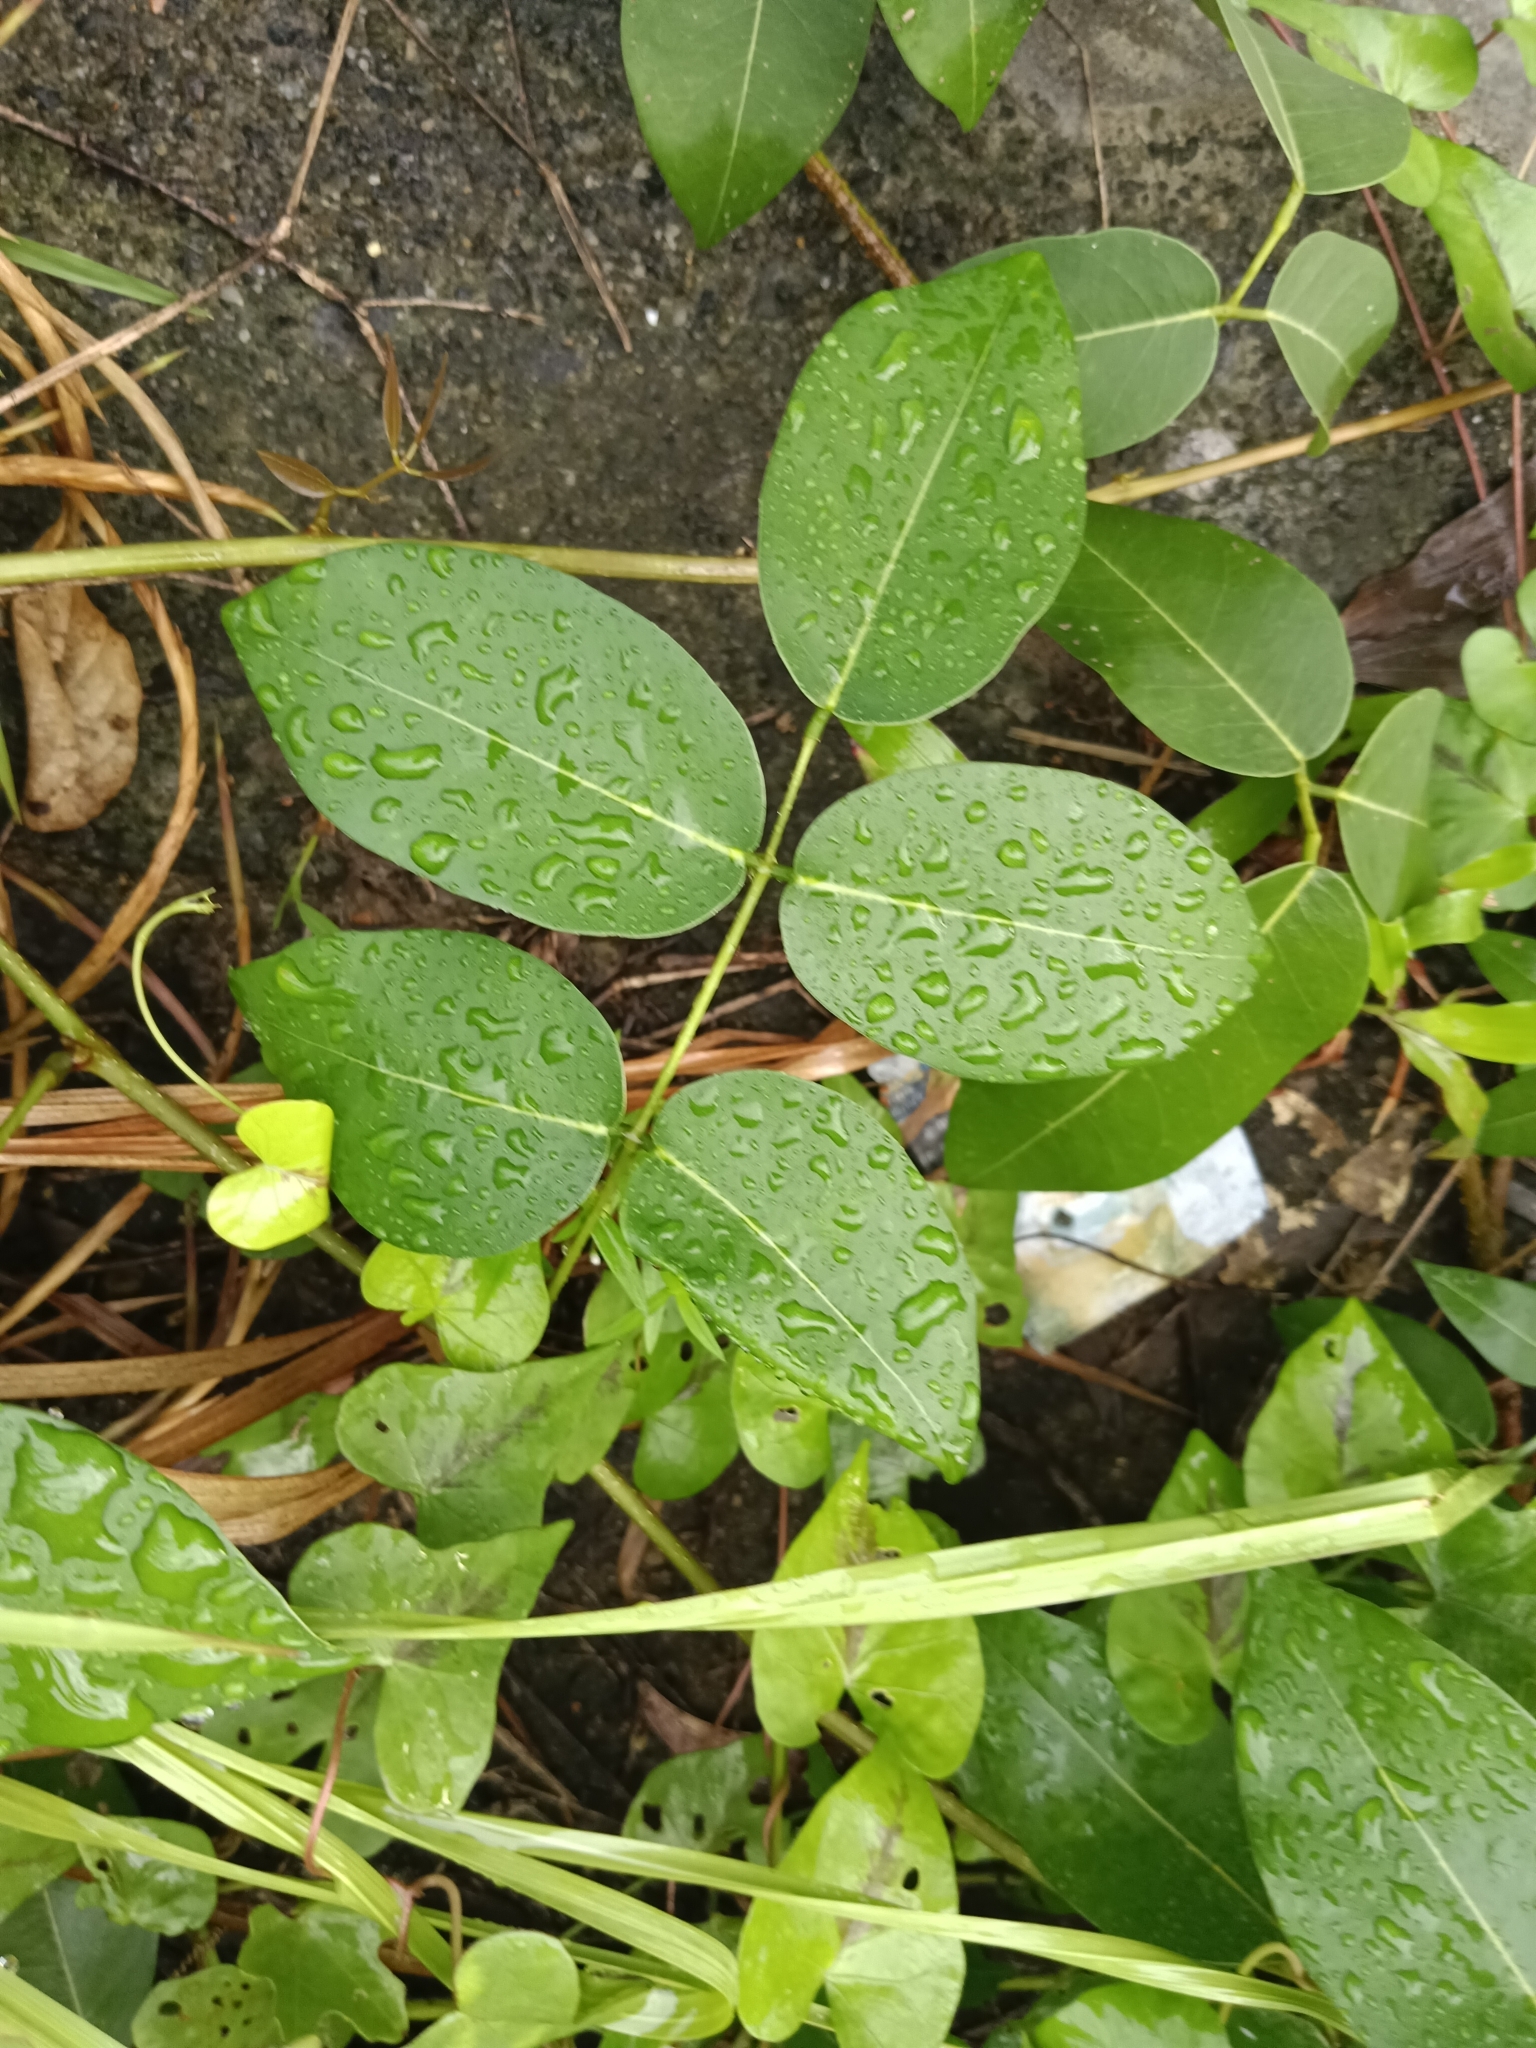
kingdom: Plantae
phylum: Tracheophyta
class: Magnoliopsida
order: Fabales
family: Fabaceae
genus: Derris
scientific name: Derris trifoliata
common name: Three-leaf derris
